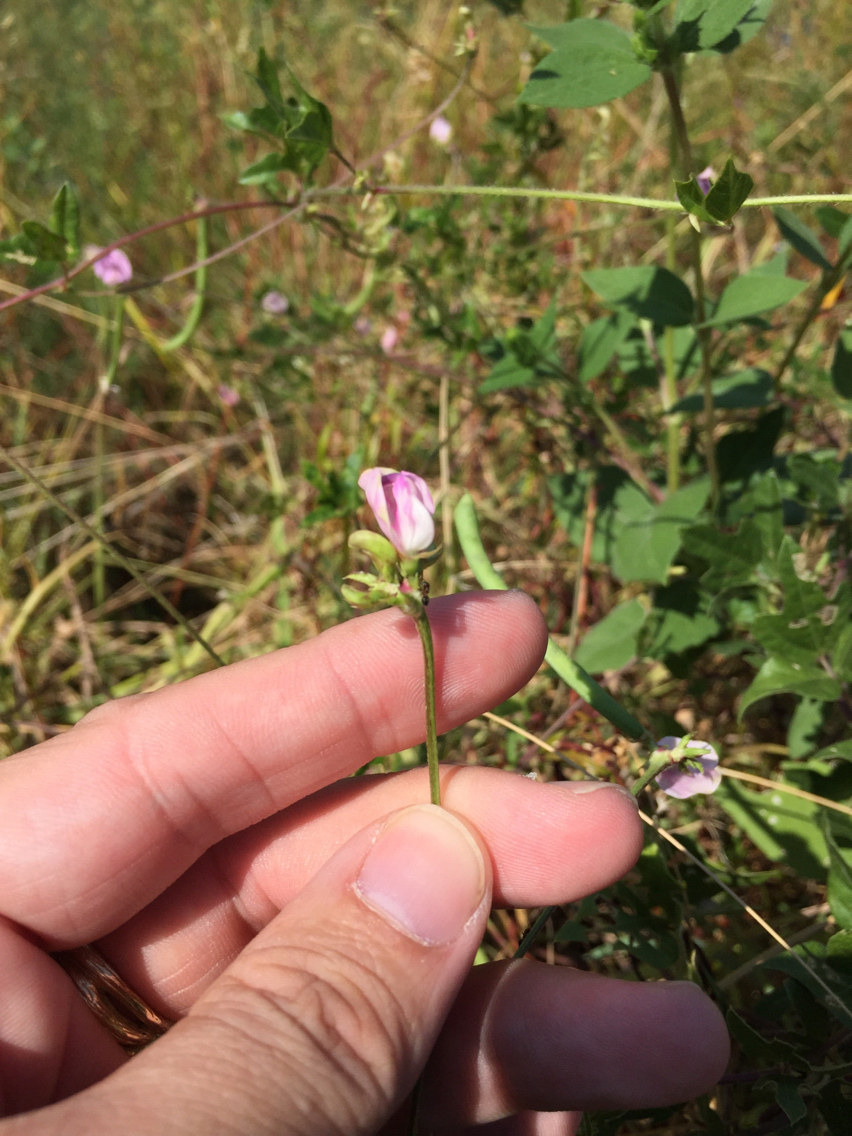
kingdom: Plantae
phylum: Tracheophyta
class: Magnoliopsida
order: Fabales
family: Fabaceae
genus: Strophostyles
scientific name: Strophostyles helvola
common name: Trailing wild bean
